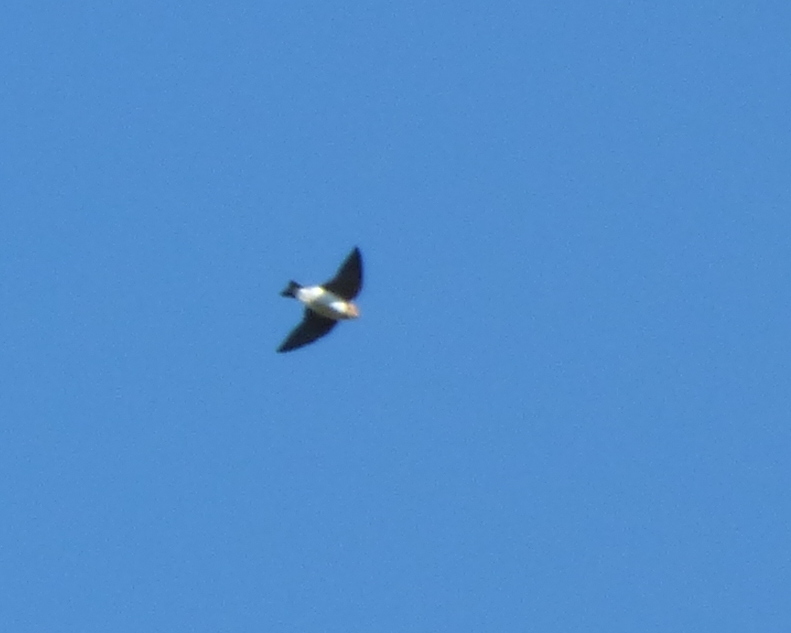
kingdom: Animalia
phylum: Chordata
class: Aves
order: Passeriformes
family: Hirundinidae
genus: Alopochelidon
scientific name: Alopochelidon fucata
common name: Tawny-headed swallow
